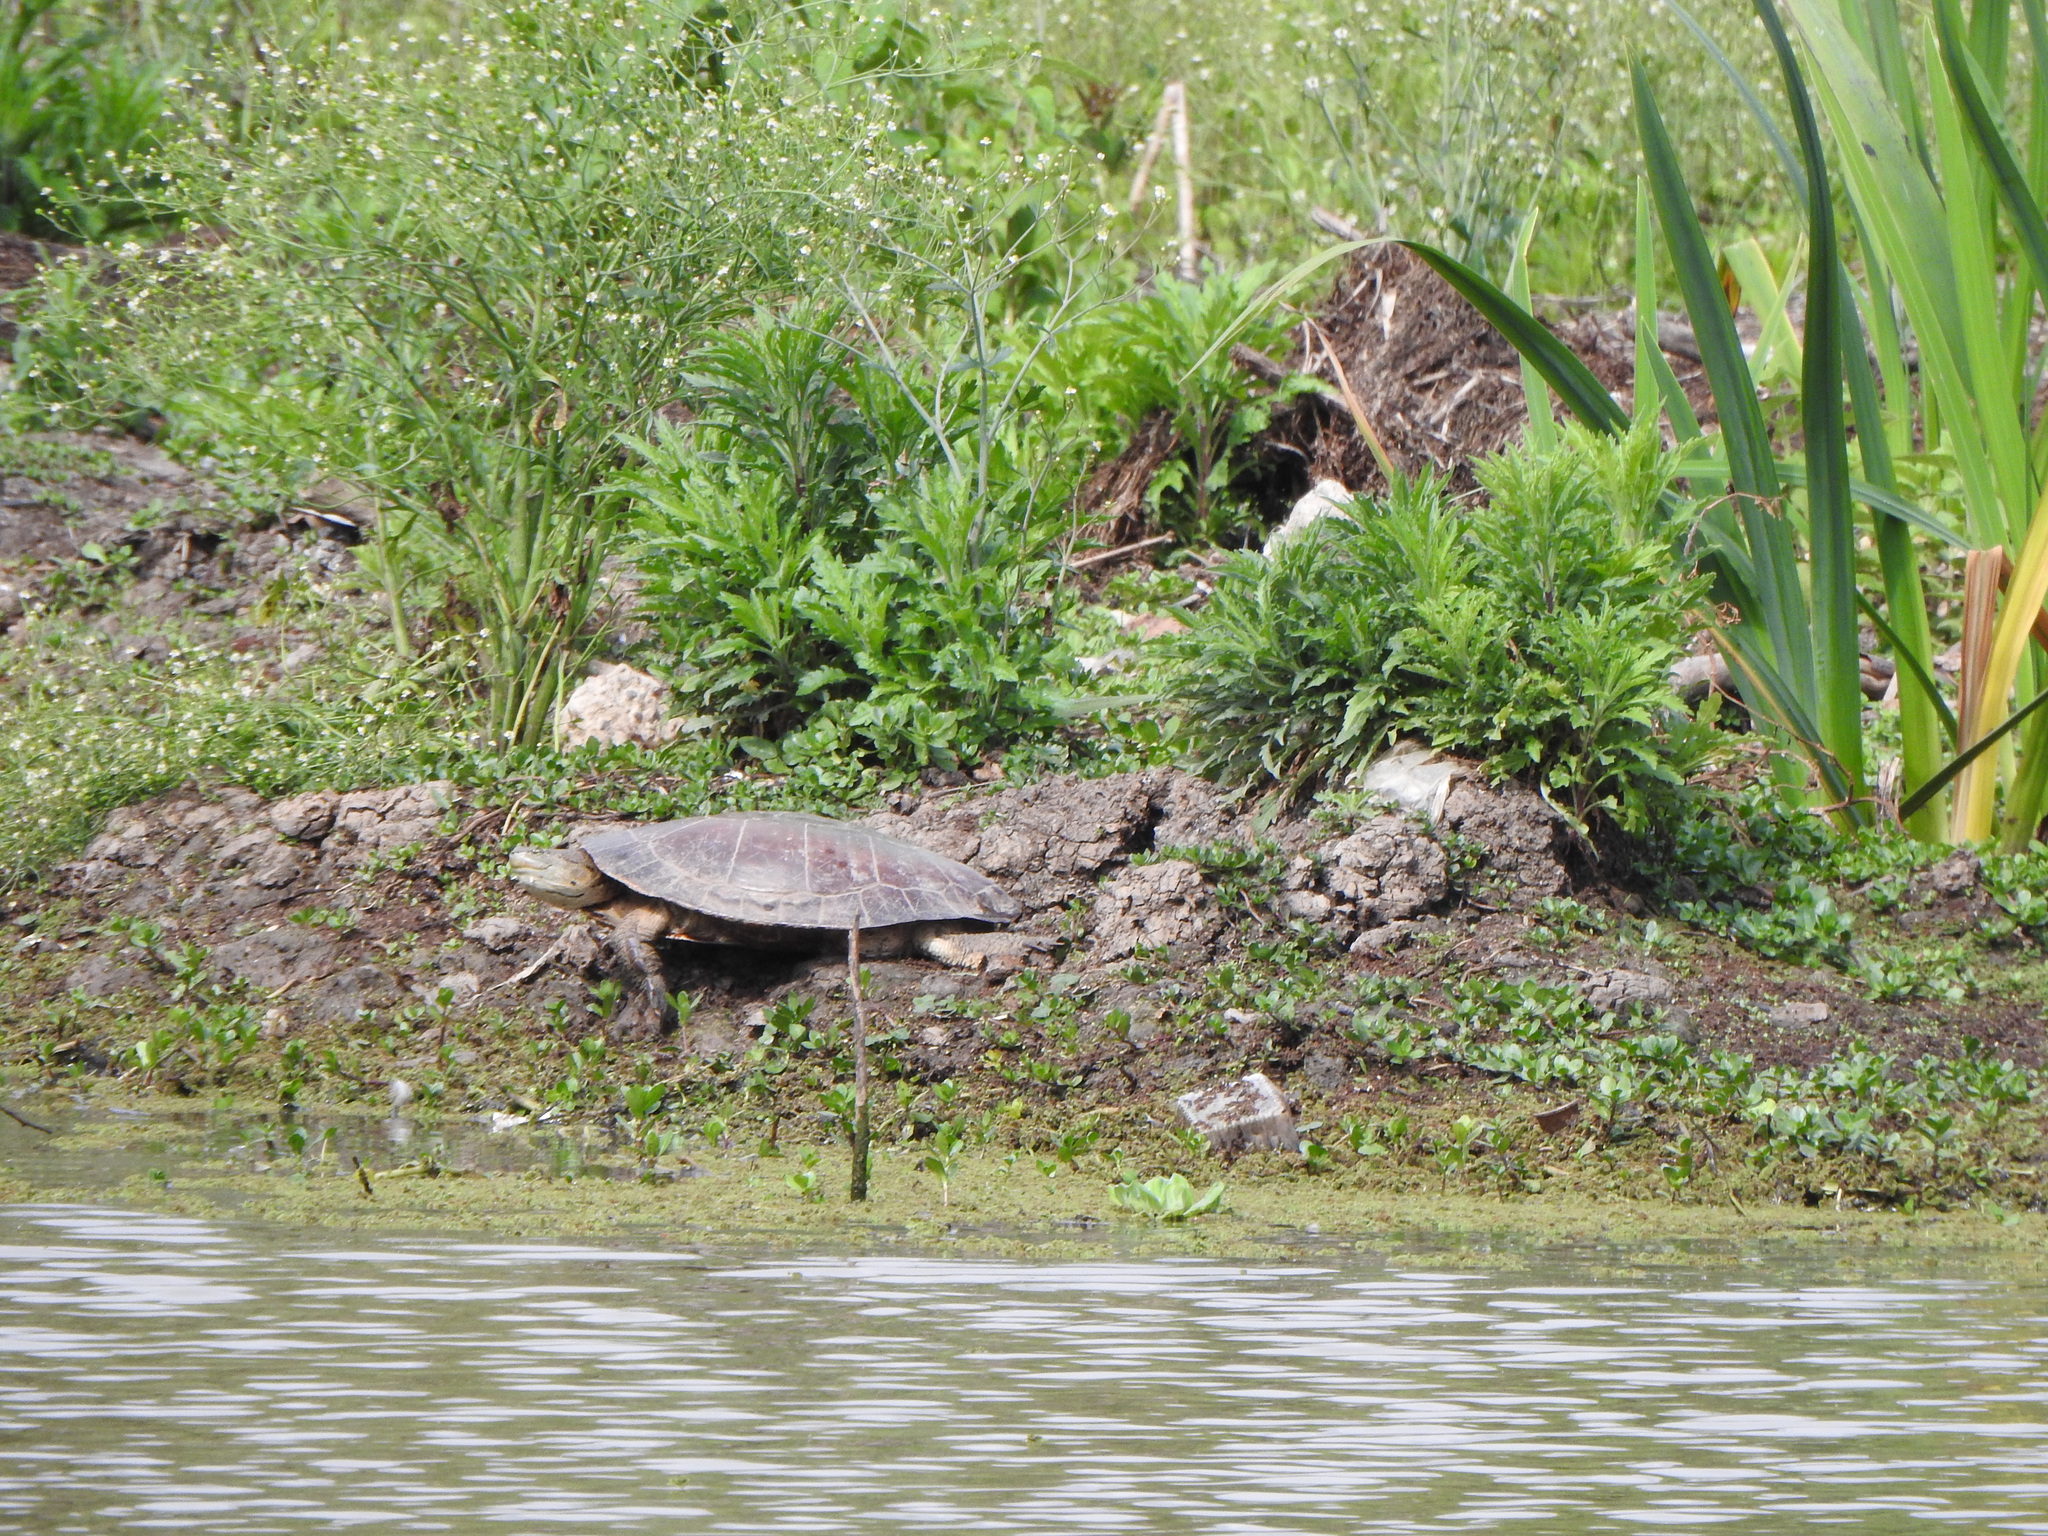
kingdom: Animalia
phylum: Chordata
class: Testudines
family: Chelidae
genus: Phrynops
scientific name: Phrynops hilarii
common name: Side-necked turtle of saint hillaire
